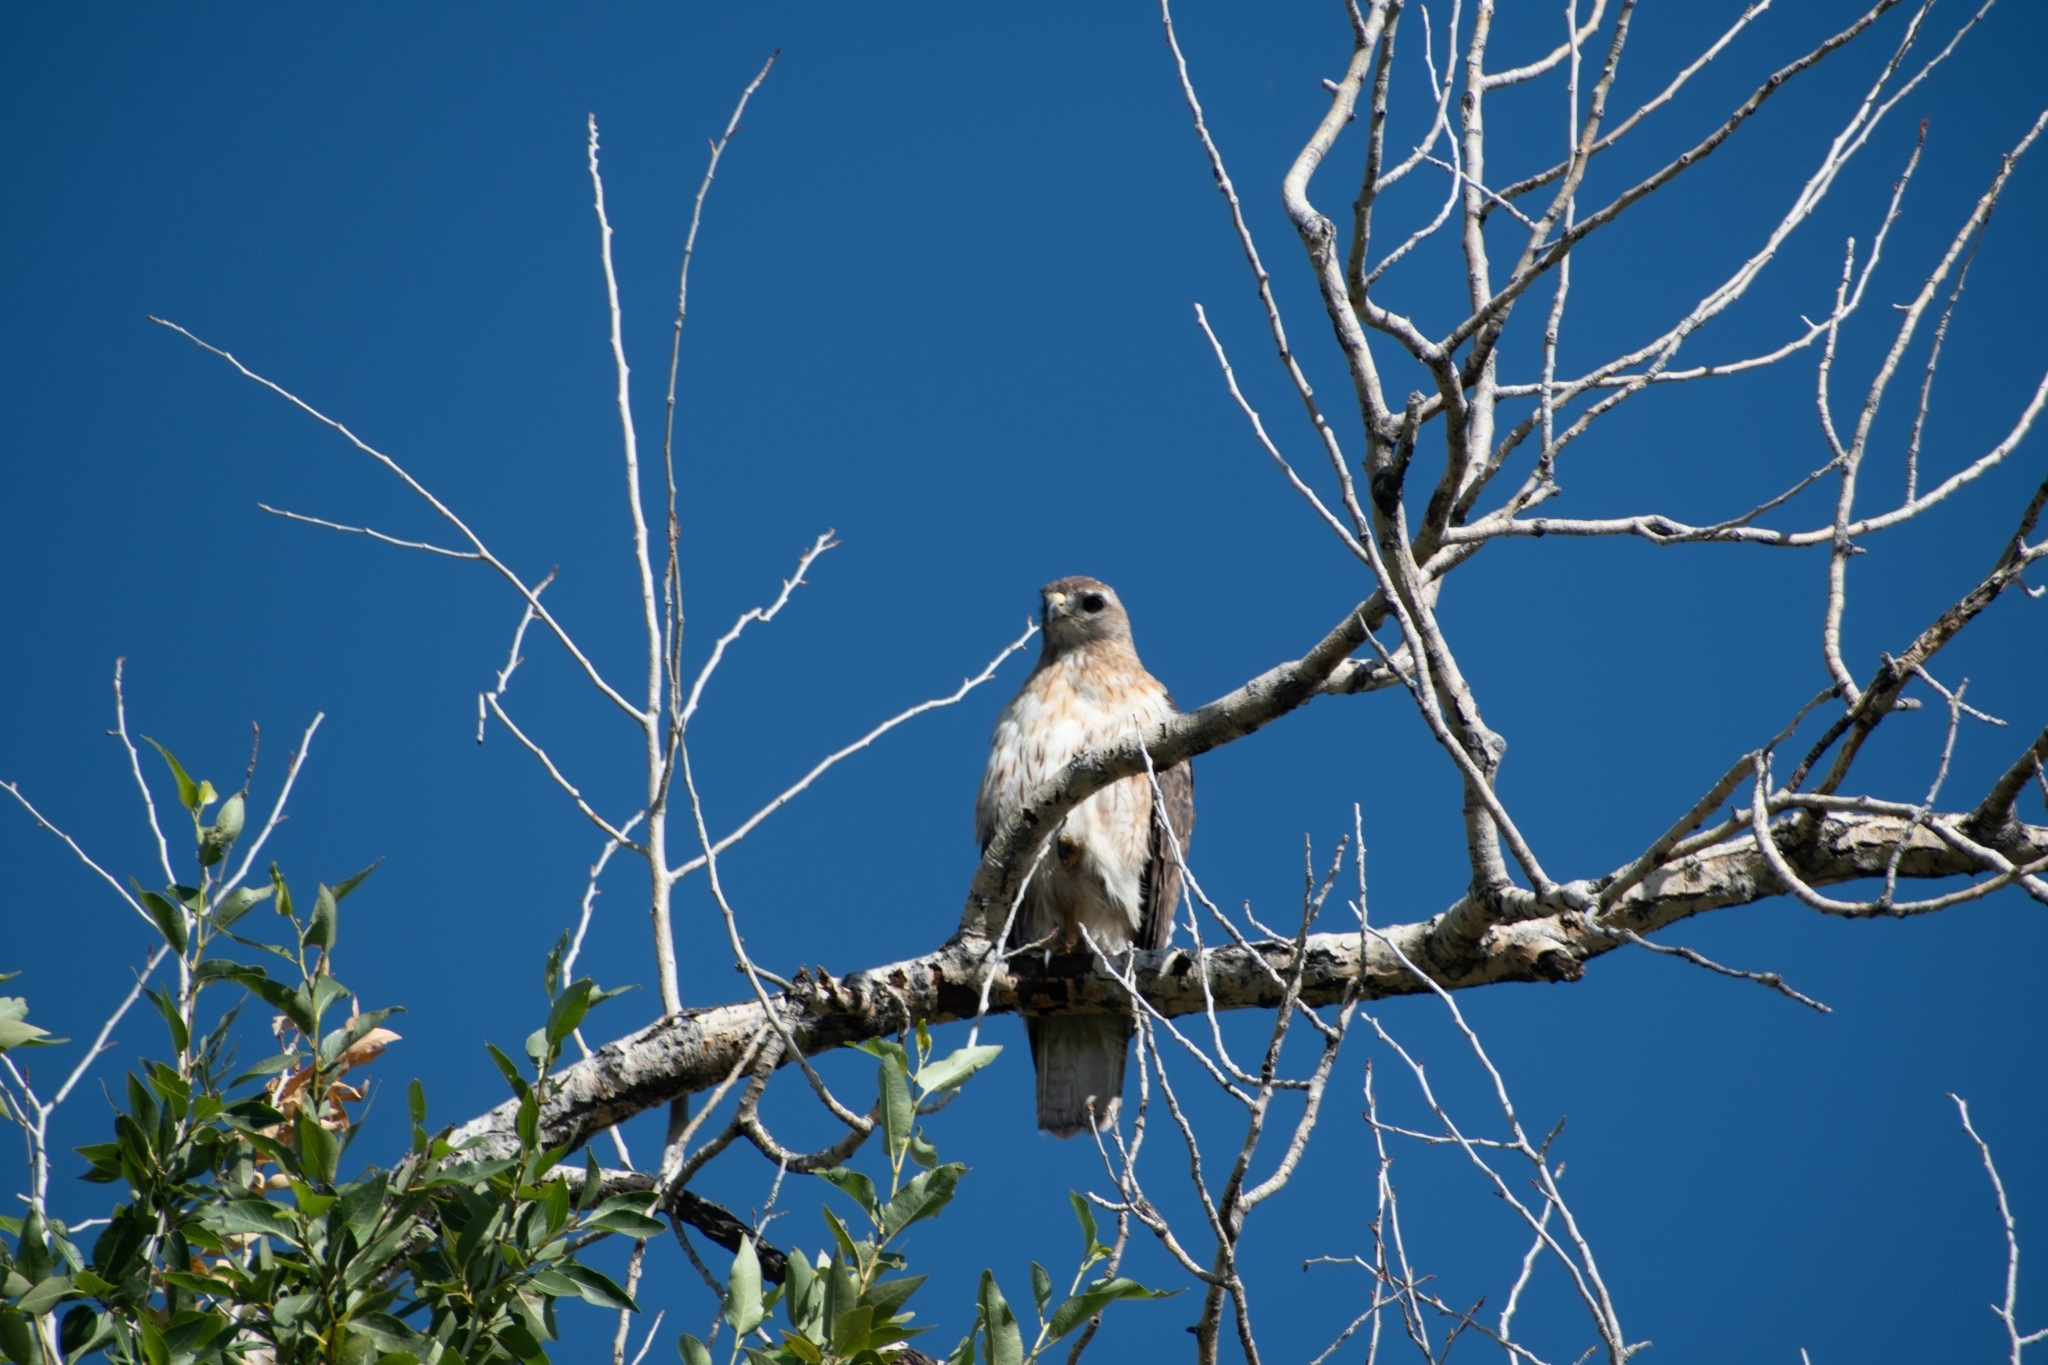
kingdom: Animalia
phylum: Chordata
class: Aves
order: Accipitriformes
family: Accipitridae
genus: Buteo
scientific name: Buteo jamaicensis
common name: Red-tailed hawk
